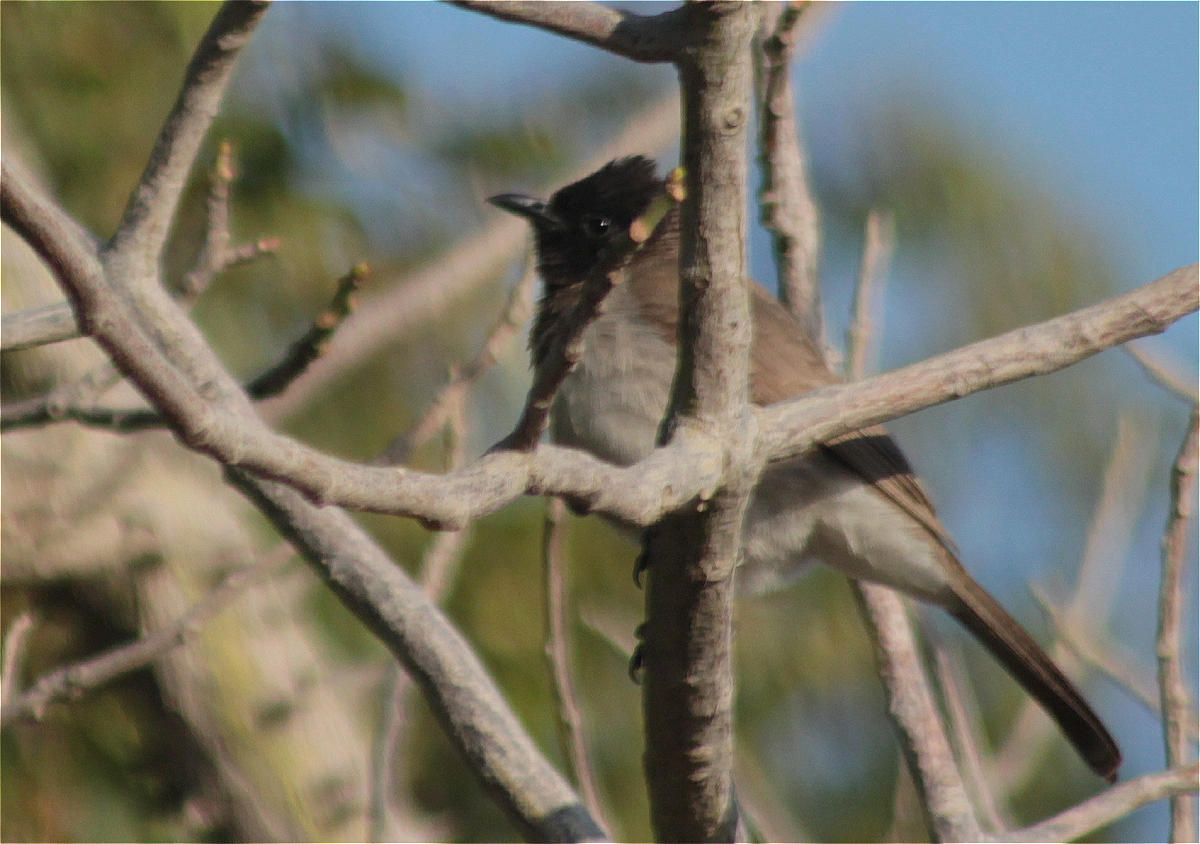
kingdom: Animalia
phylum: Chordata
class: Aves
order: Passeriformes
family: Pycnonotidae
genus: Pycnonotus
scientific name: Pycnonotus barbatus
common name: Common bulbul
